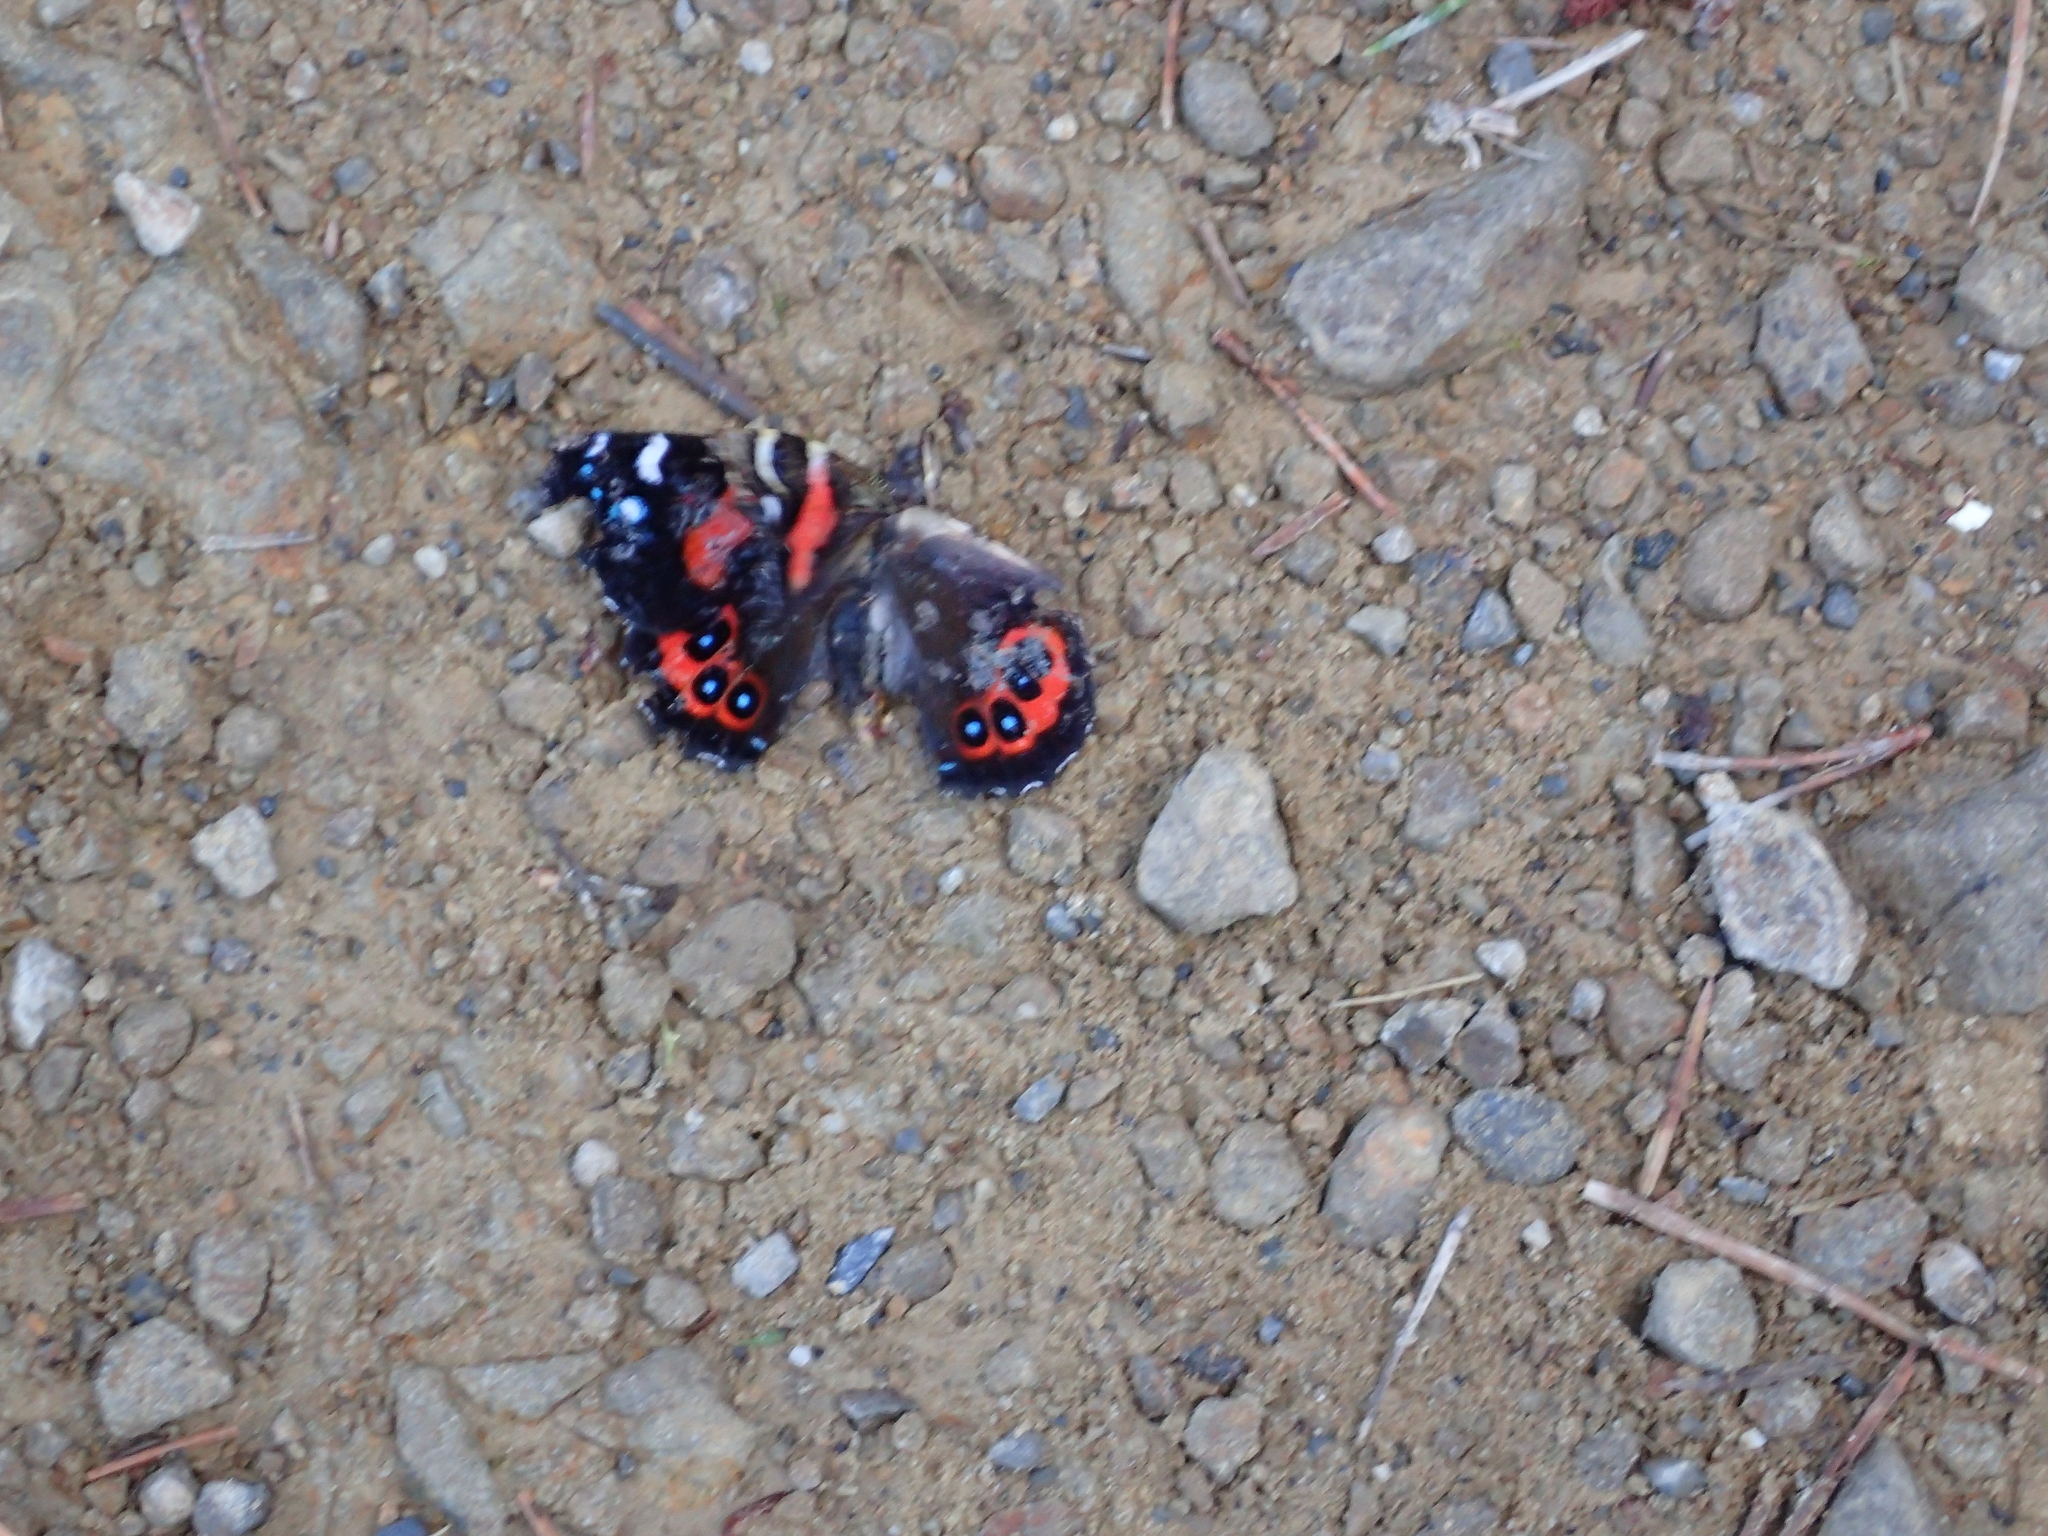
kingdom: Animalia
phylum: Arthropoda
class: Insecta
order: Lepidoptera
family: Nymphalidae
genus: Vanessa
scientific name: Vanessa gonerilla
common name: New zealand red admiral
